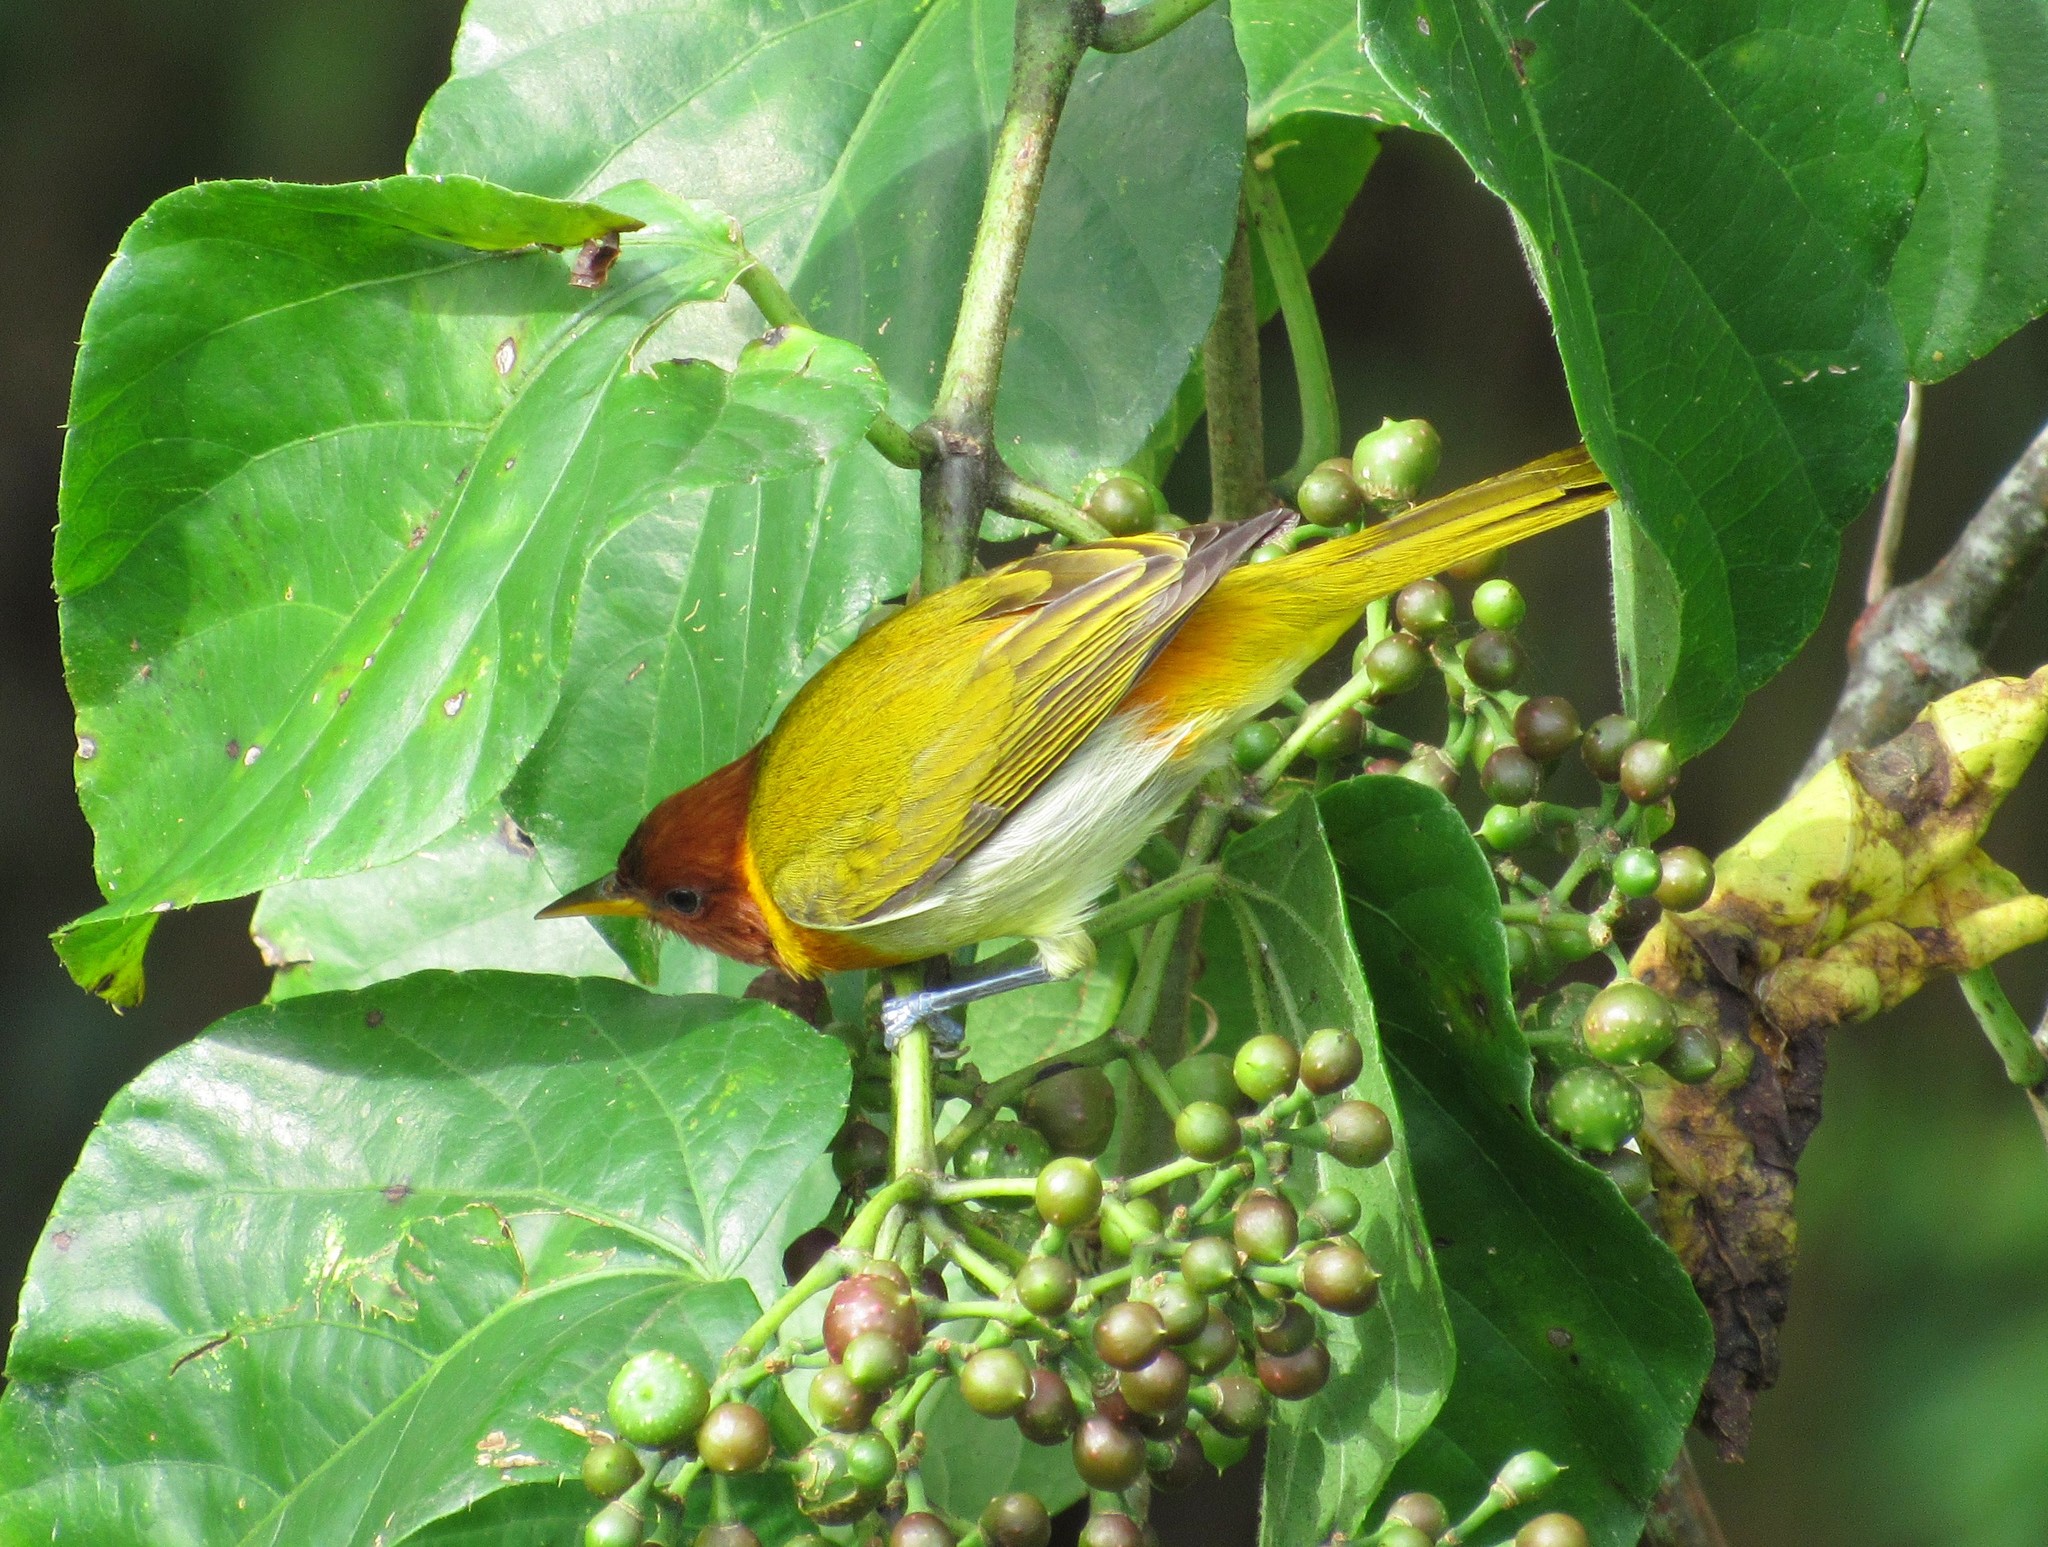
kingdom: Animalia
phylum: Chordata
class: Aves
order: Passeriformes
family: Thraupidae
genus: Hemithraupis
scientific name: Hemithraupis ruficapilla
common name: Rufous-headed tanager
